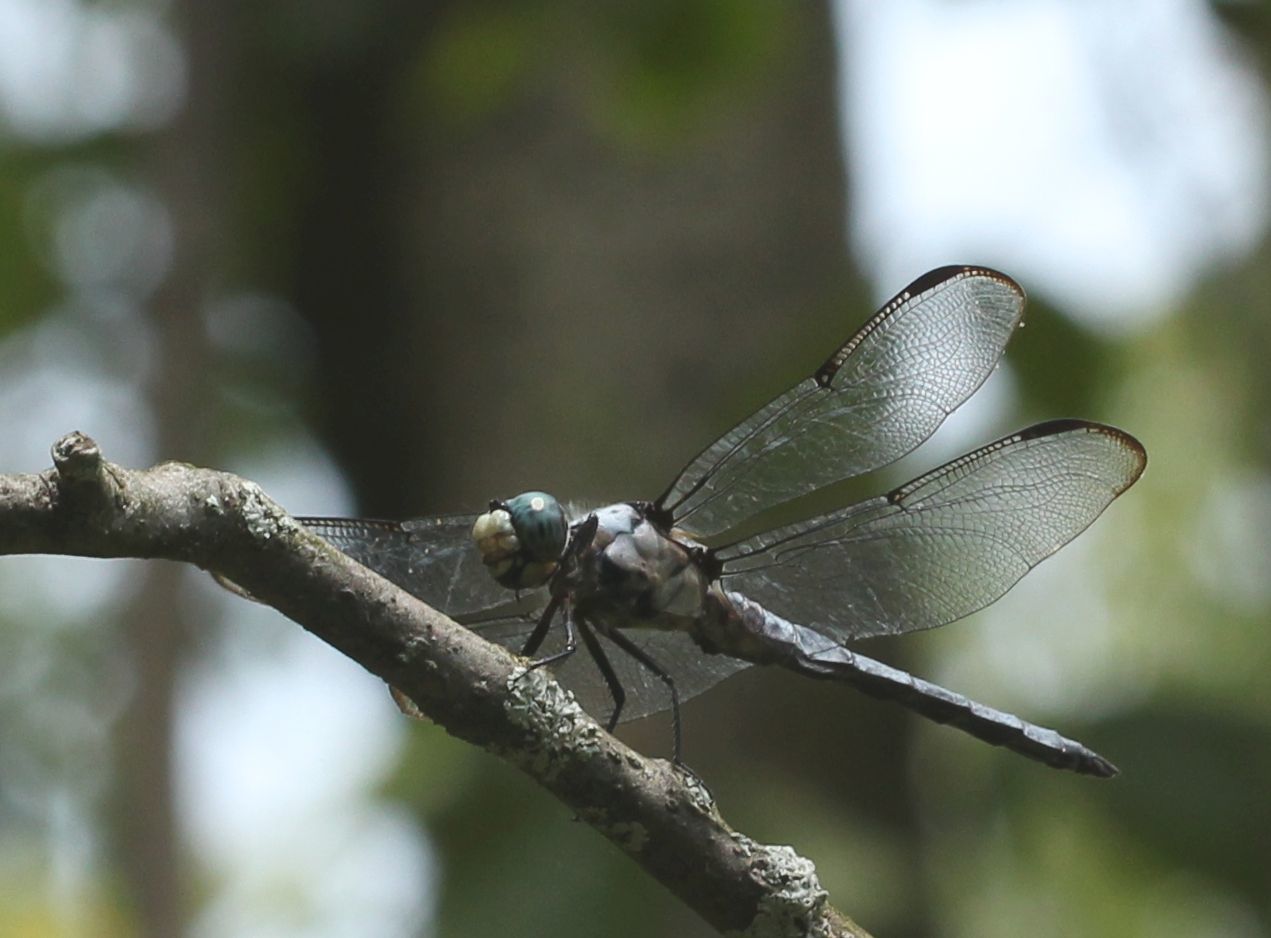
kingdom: Animalia
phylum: Arthropoda
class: Insecta
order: Odonata
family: Libellulidae
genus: Libellula
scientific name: Libellula vibrans
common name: Great blue skimmer
